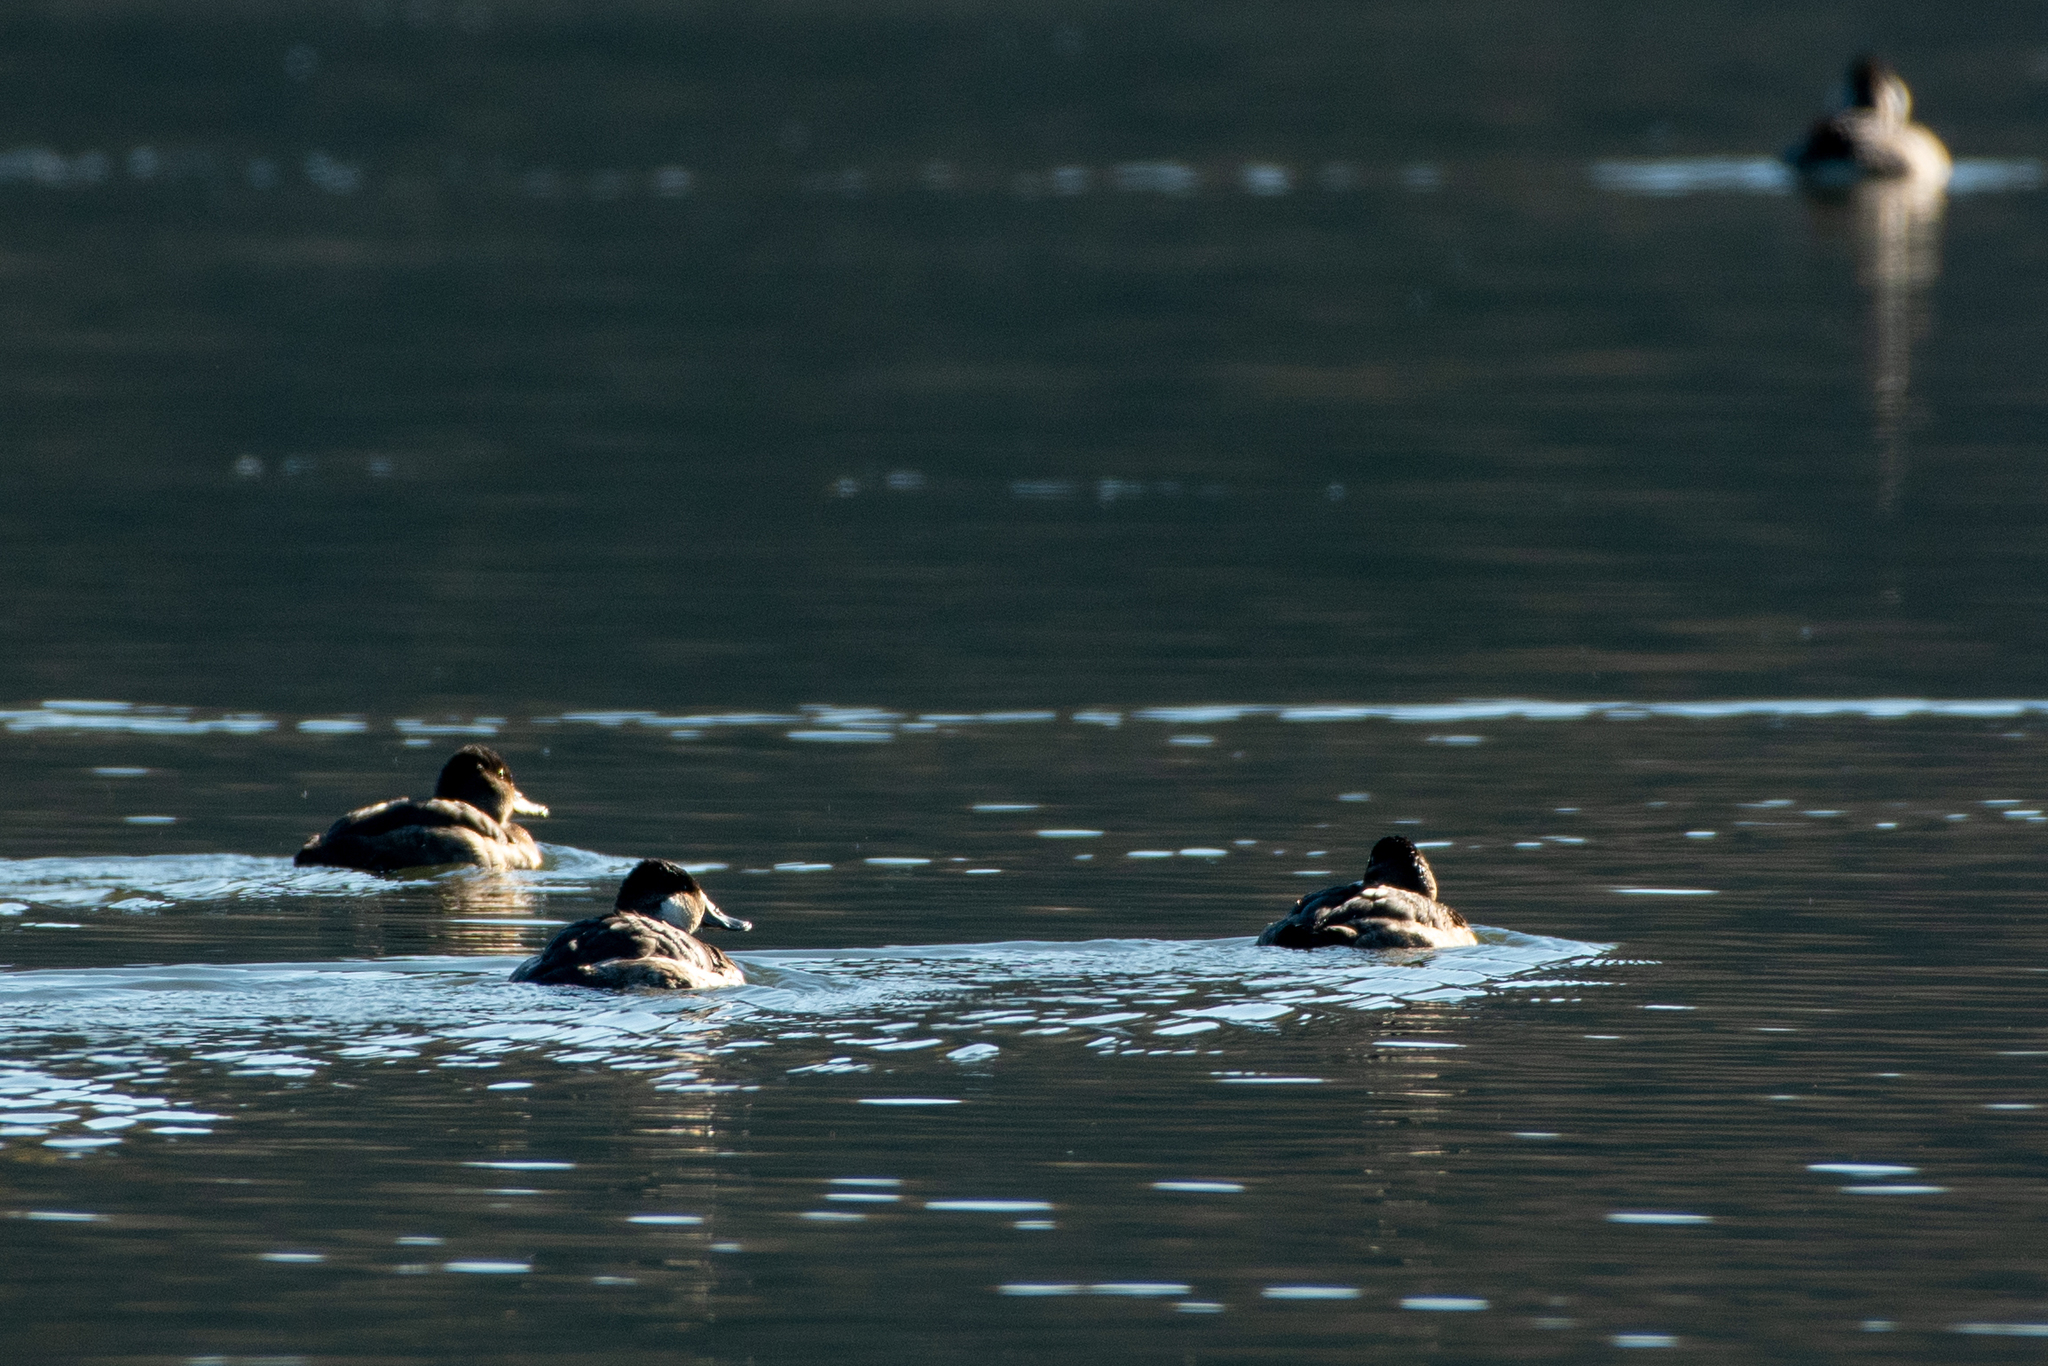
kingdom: Animalia
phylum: Chordata
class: Aves
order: Anseriformes
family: Anatidae
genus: Oxyura
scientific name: Oxyura jamaicensis
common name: Ruddy duck
